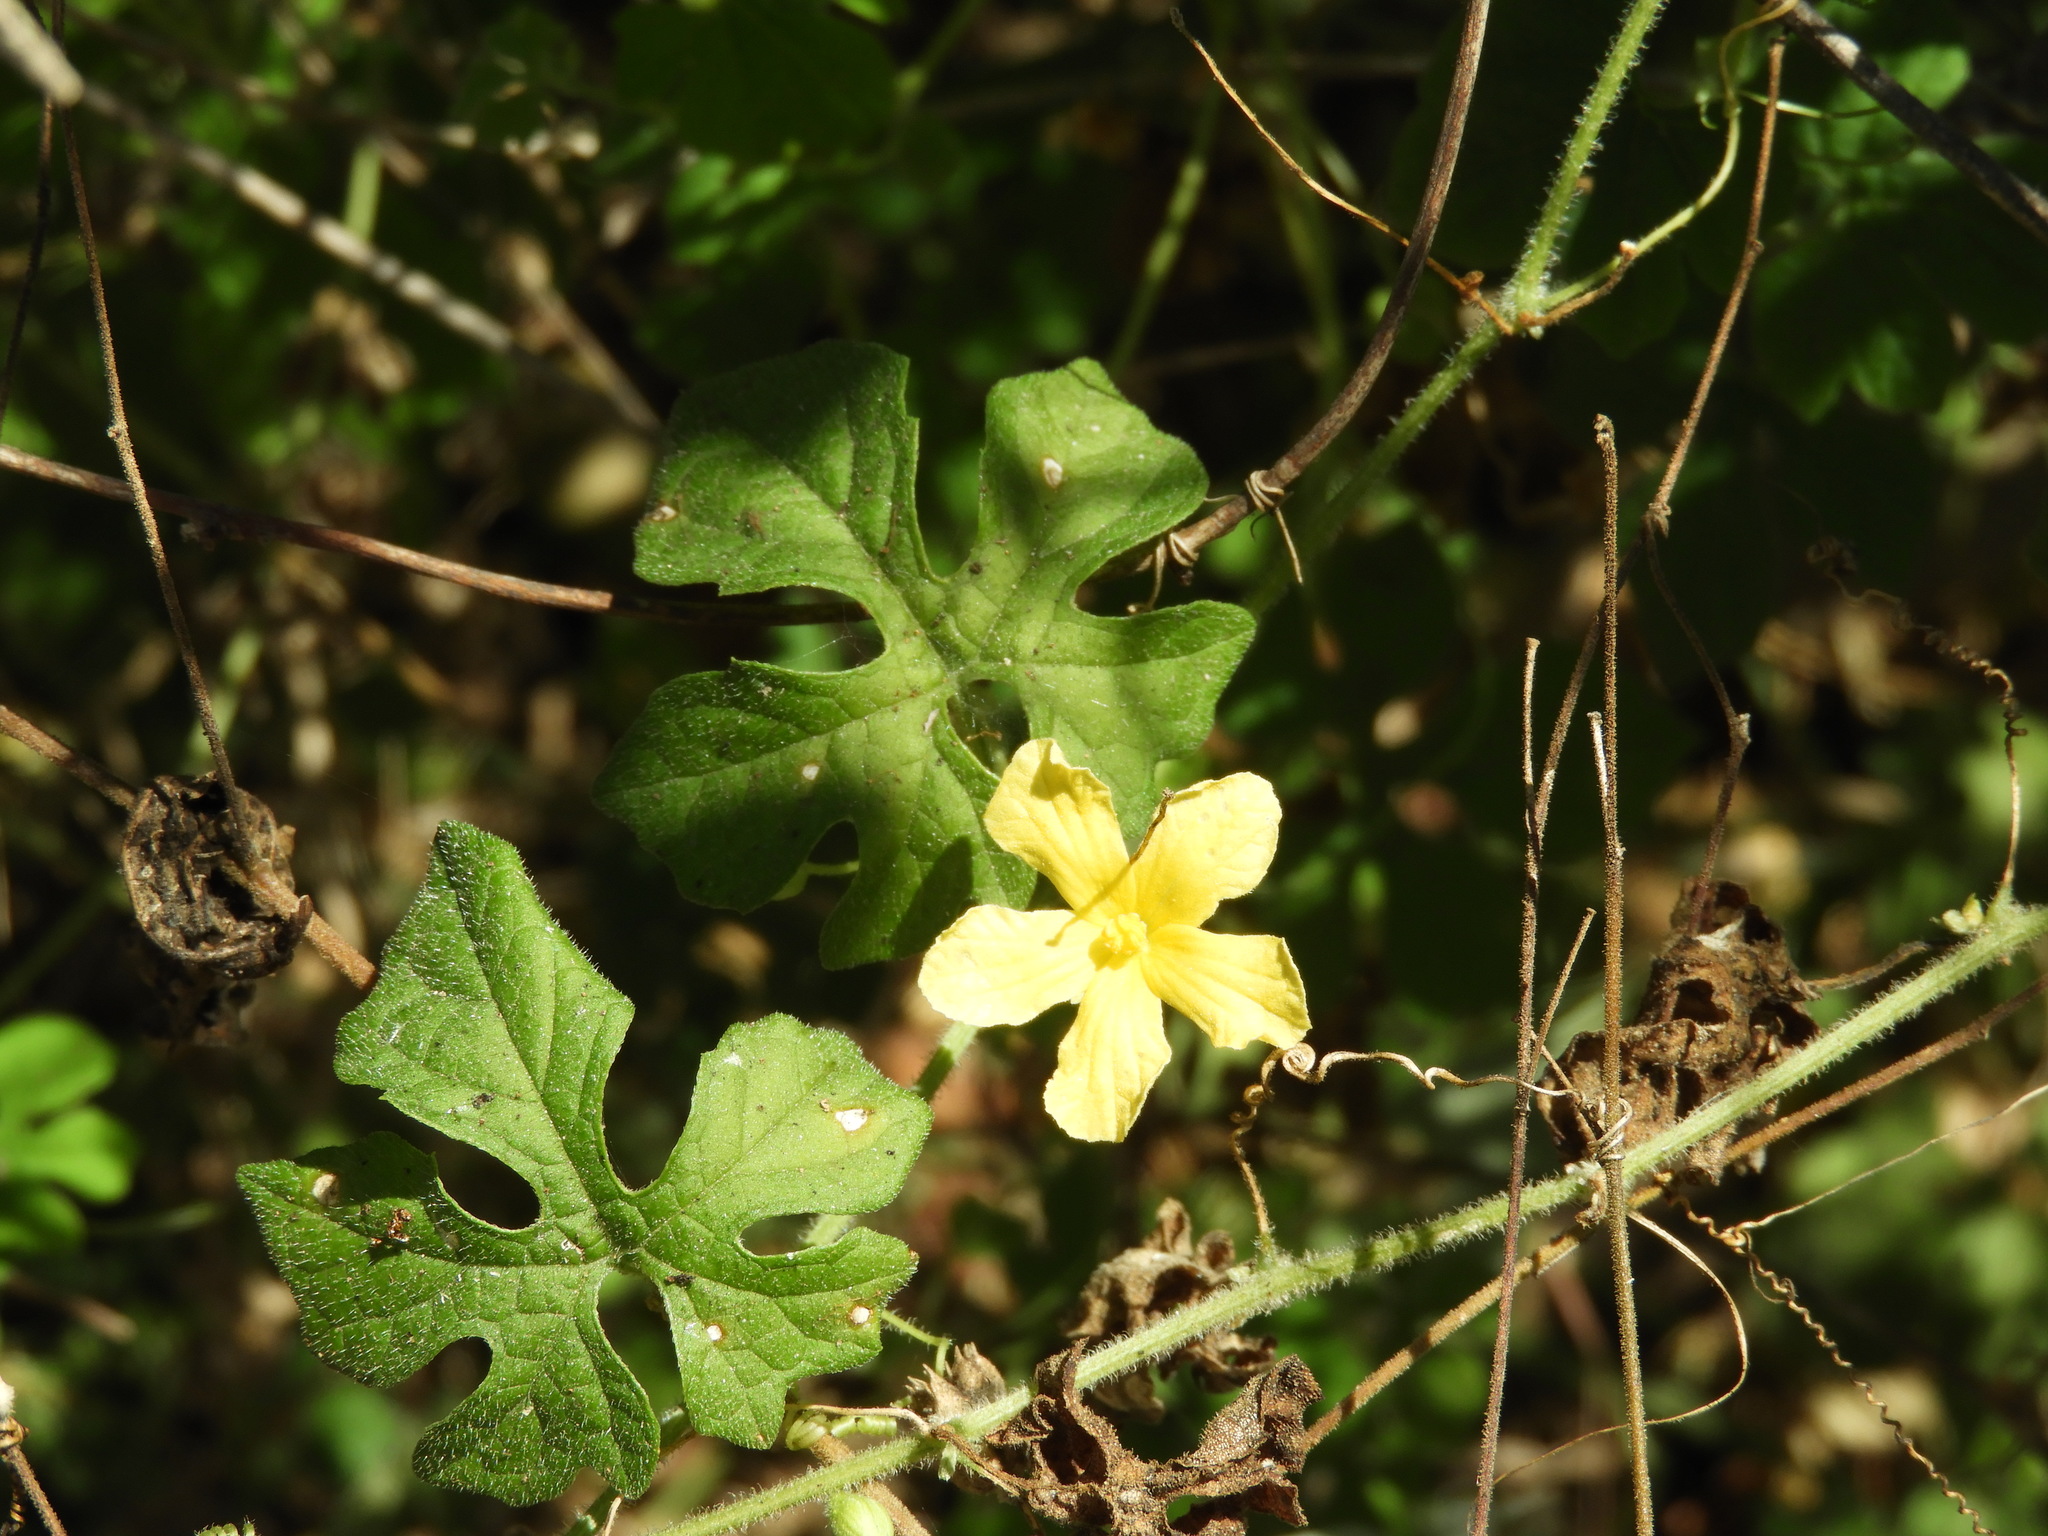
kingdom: Plantae
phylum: Tracheophyta
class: Magnoliopsida
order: Cucurbitales
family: Cucurbitaceae
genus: Momordica
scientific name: Momordica charantia
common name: Balsampear
